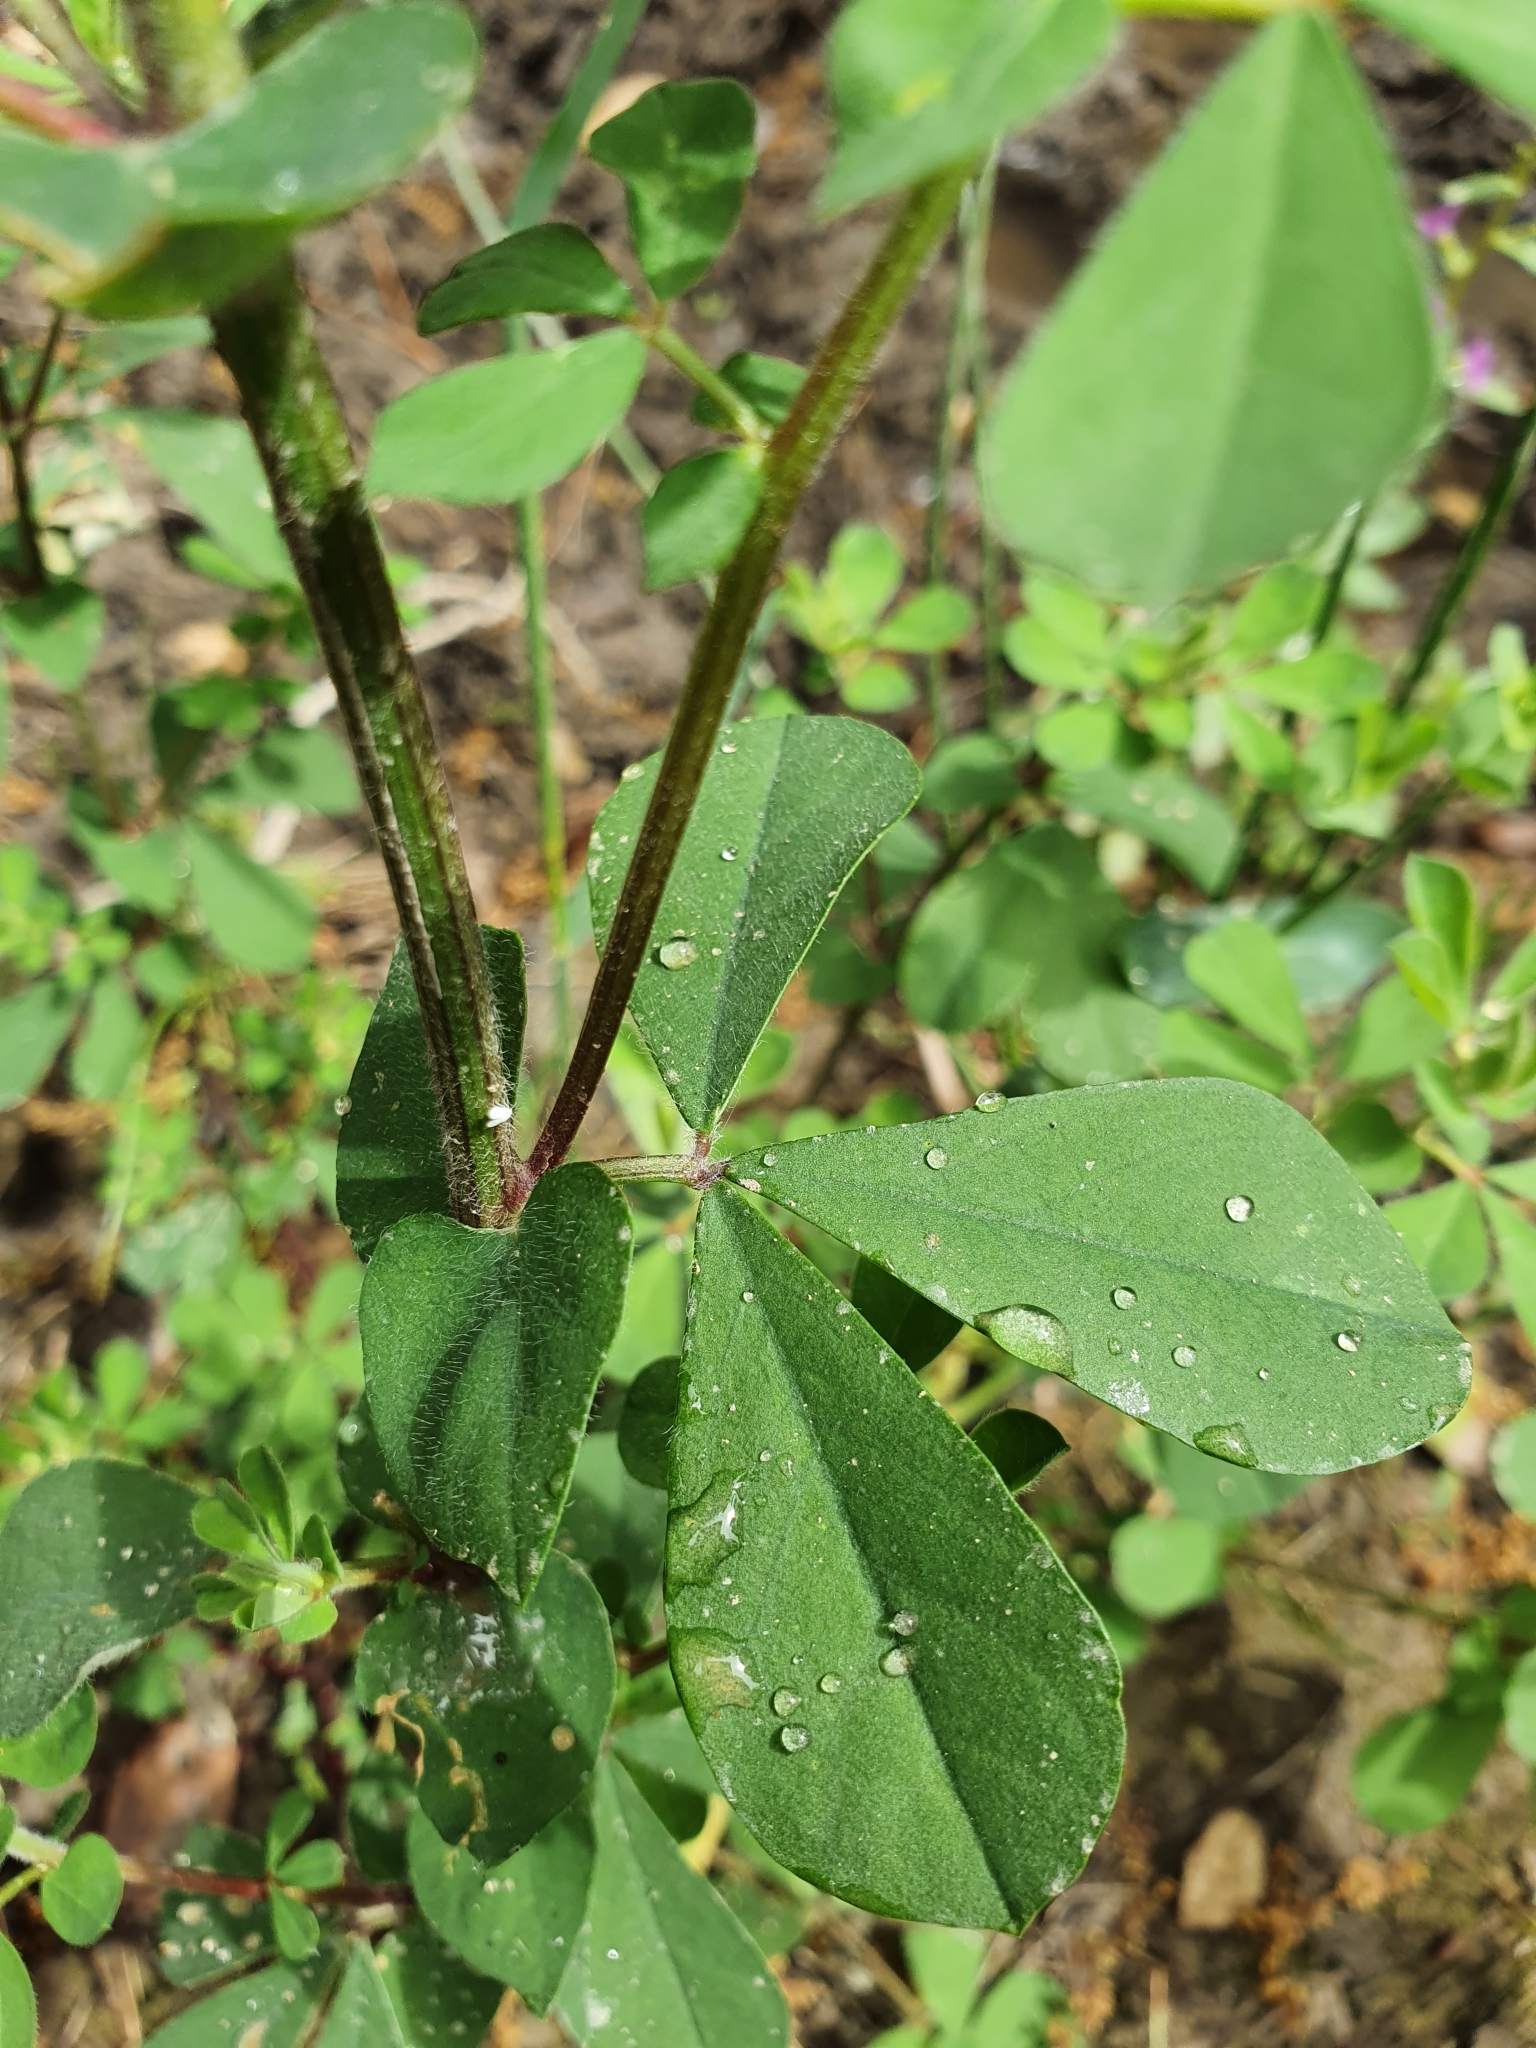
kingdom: Plantae
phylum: Tracheophyta
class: Magnoliopsida
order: Fabales
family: Fabaceae
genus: Lotus
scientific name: Lotus rectus
